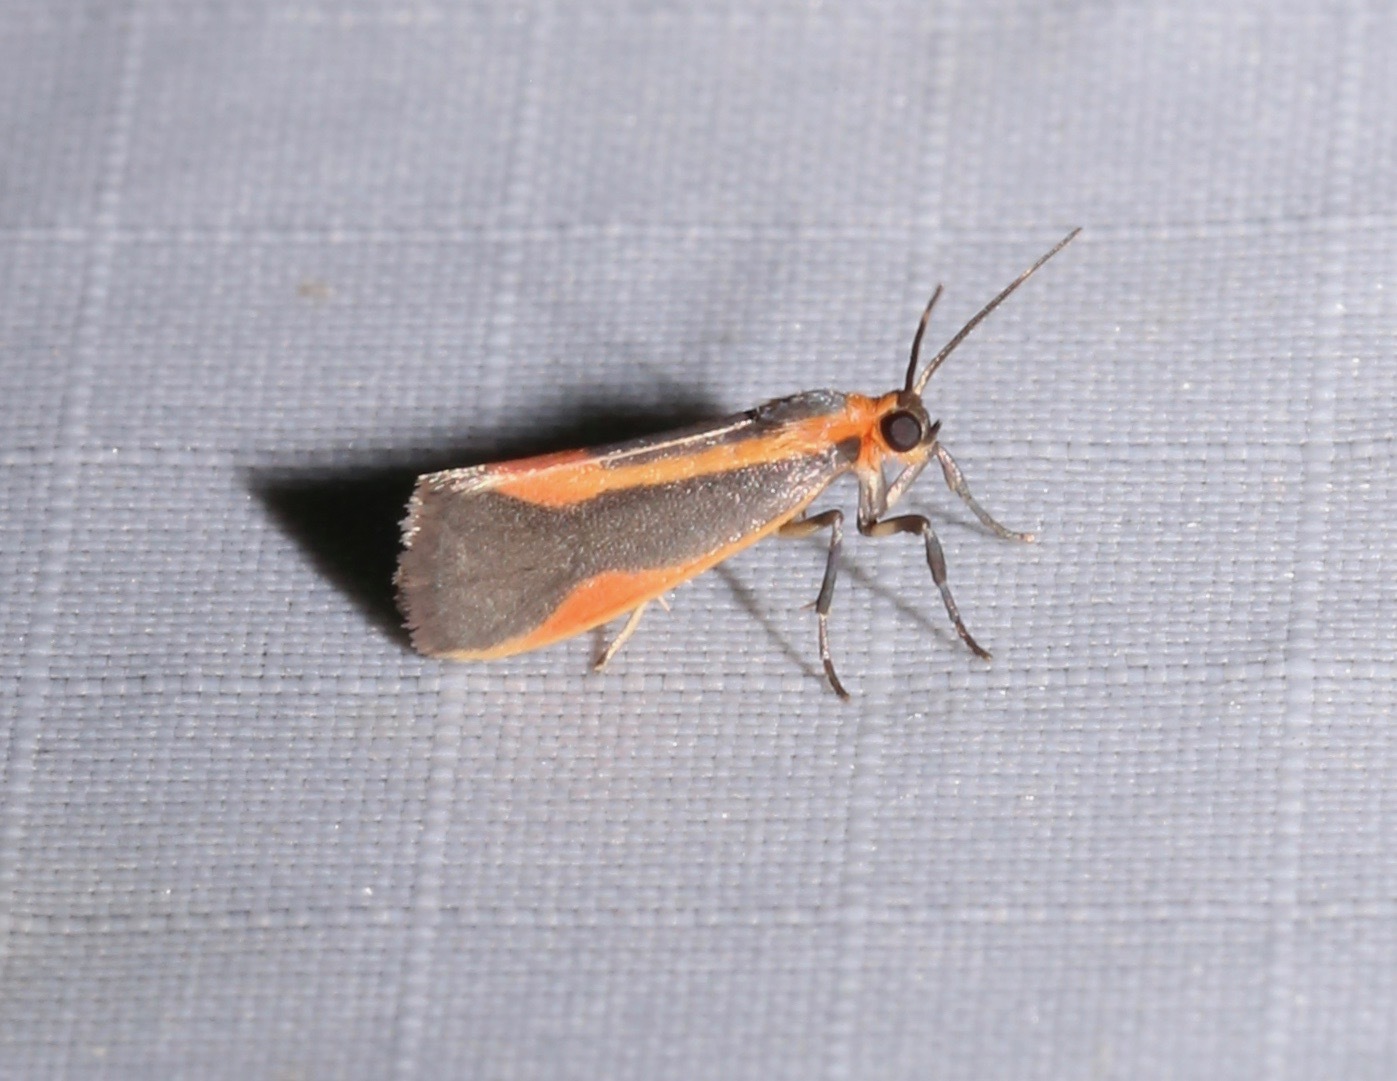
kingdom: Animalia
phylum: Arthropoda
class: Insecta
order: Lepidoptera
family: Erebidae
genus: Cisthene
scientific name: Cisthene subjecta
